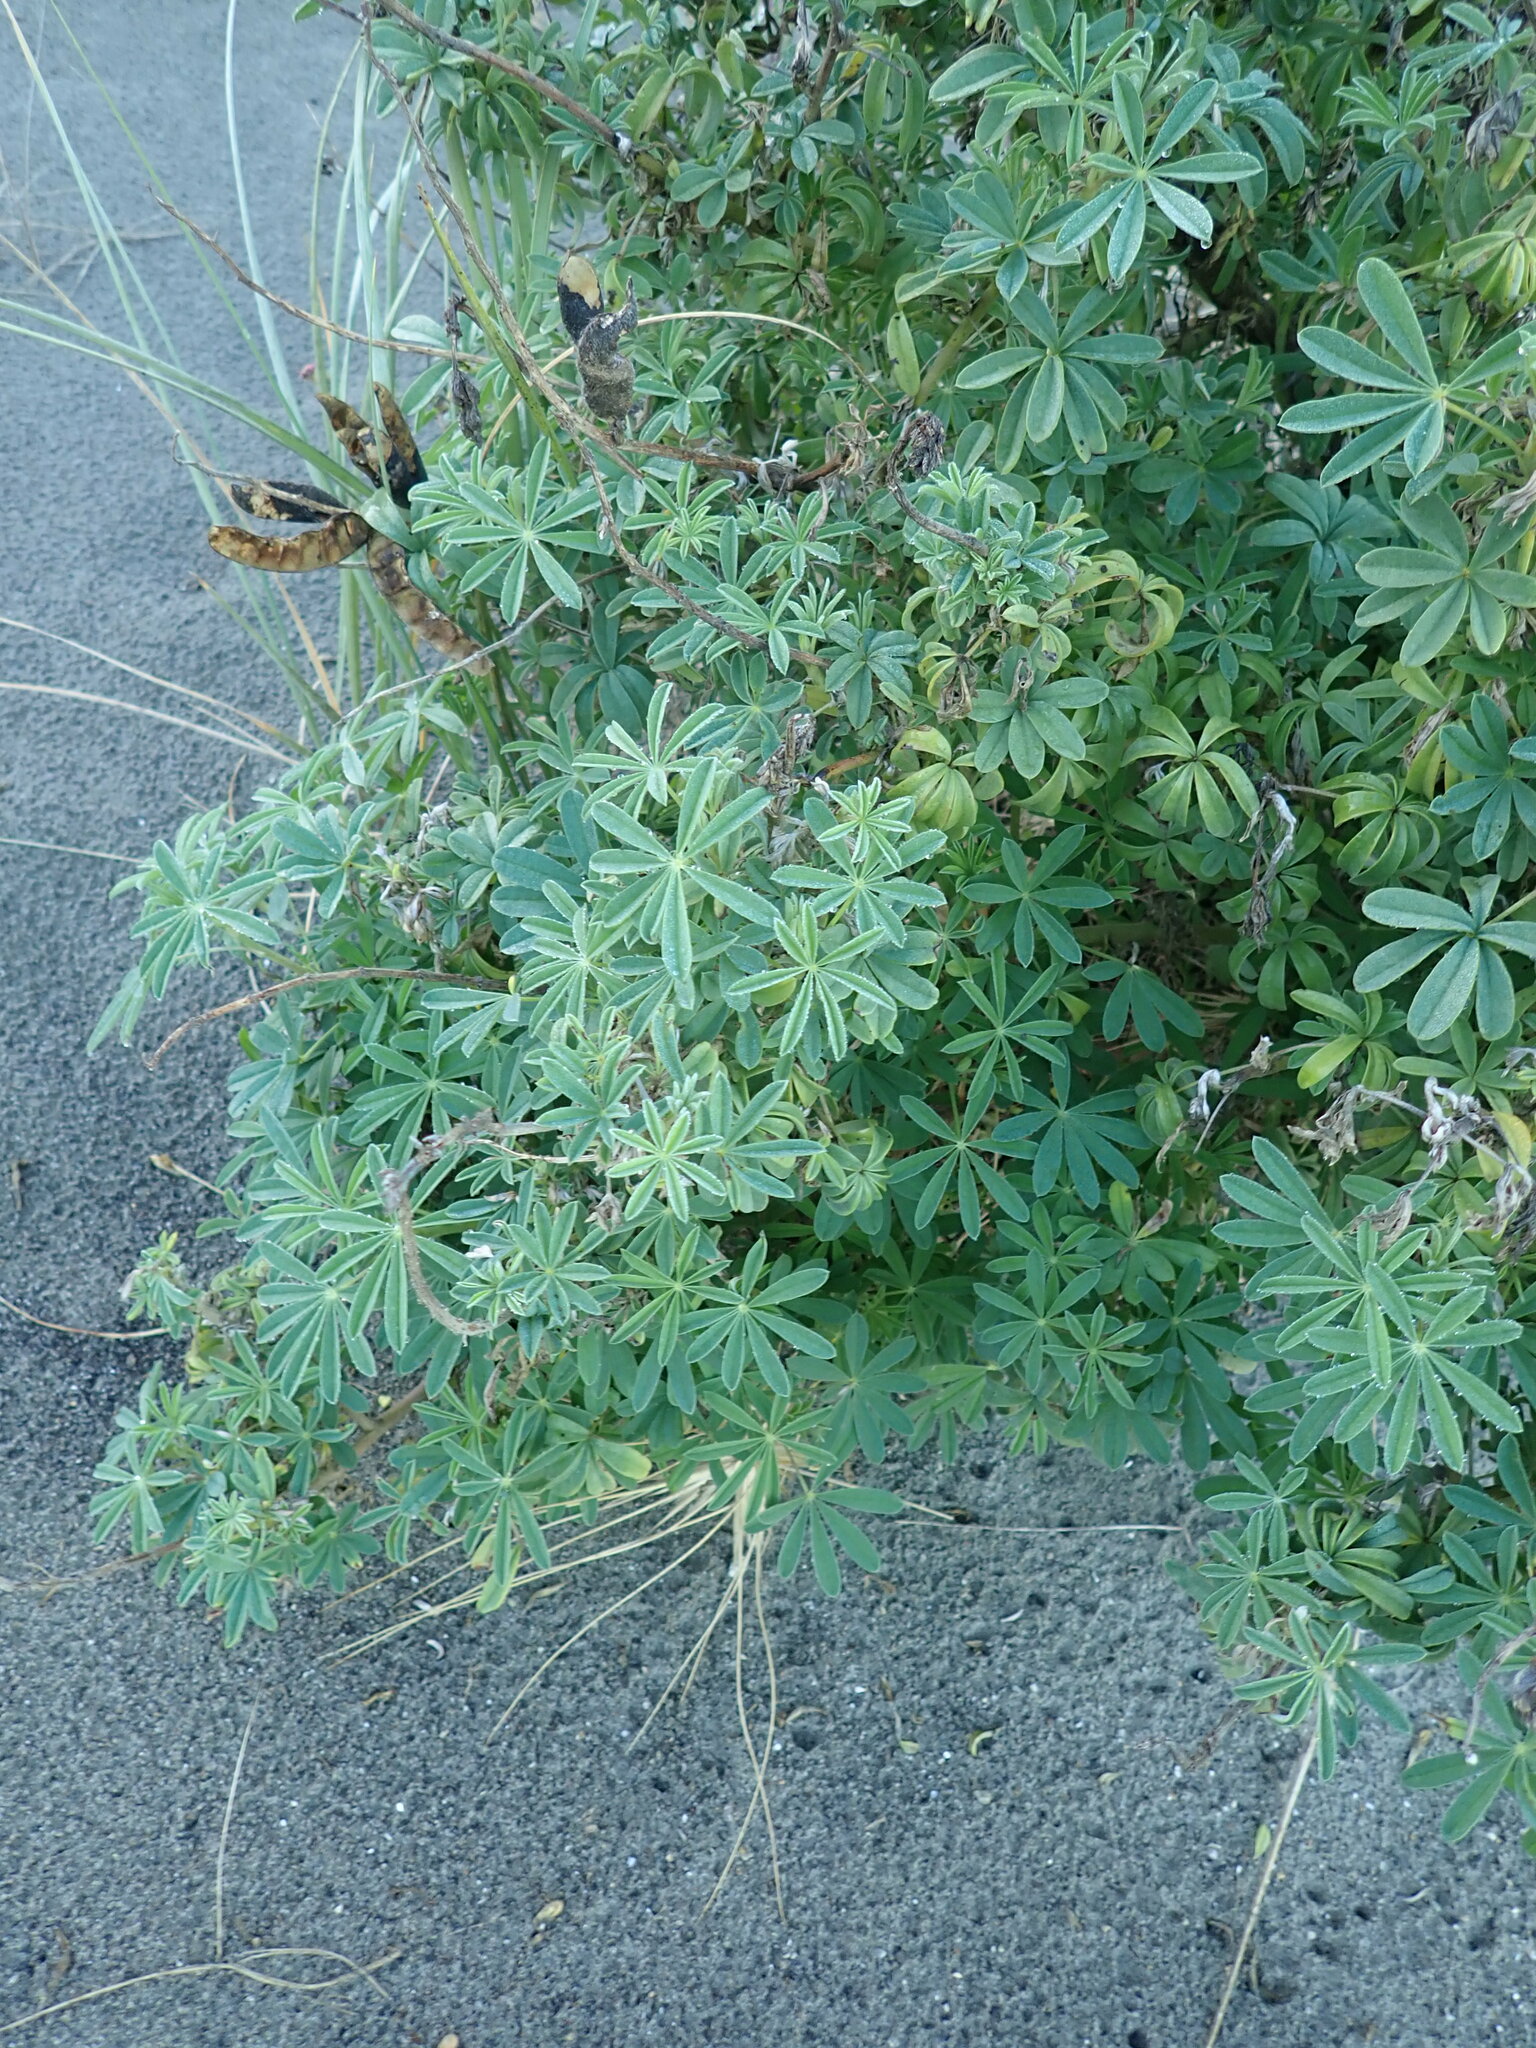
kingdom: Plantae
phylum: Tracheophyta
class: Magnoliopsida
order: Fabales
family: Fabaceae
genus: Lupinus
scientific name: Lupinus arboreus
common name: Yellow bush lupine
